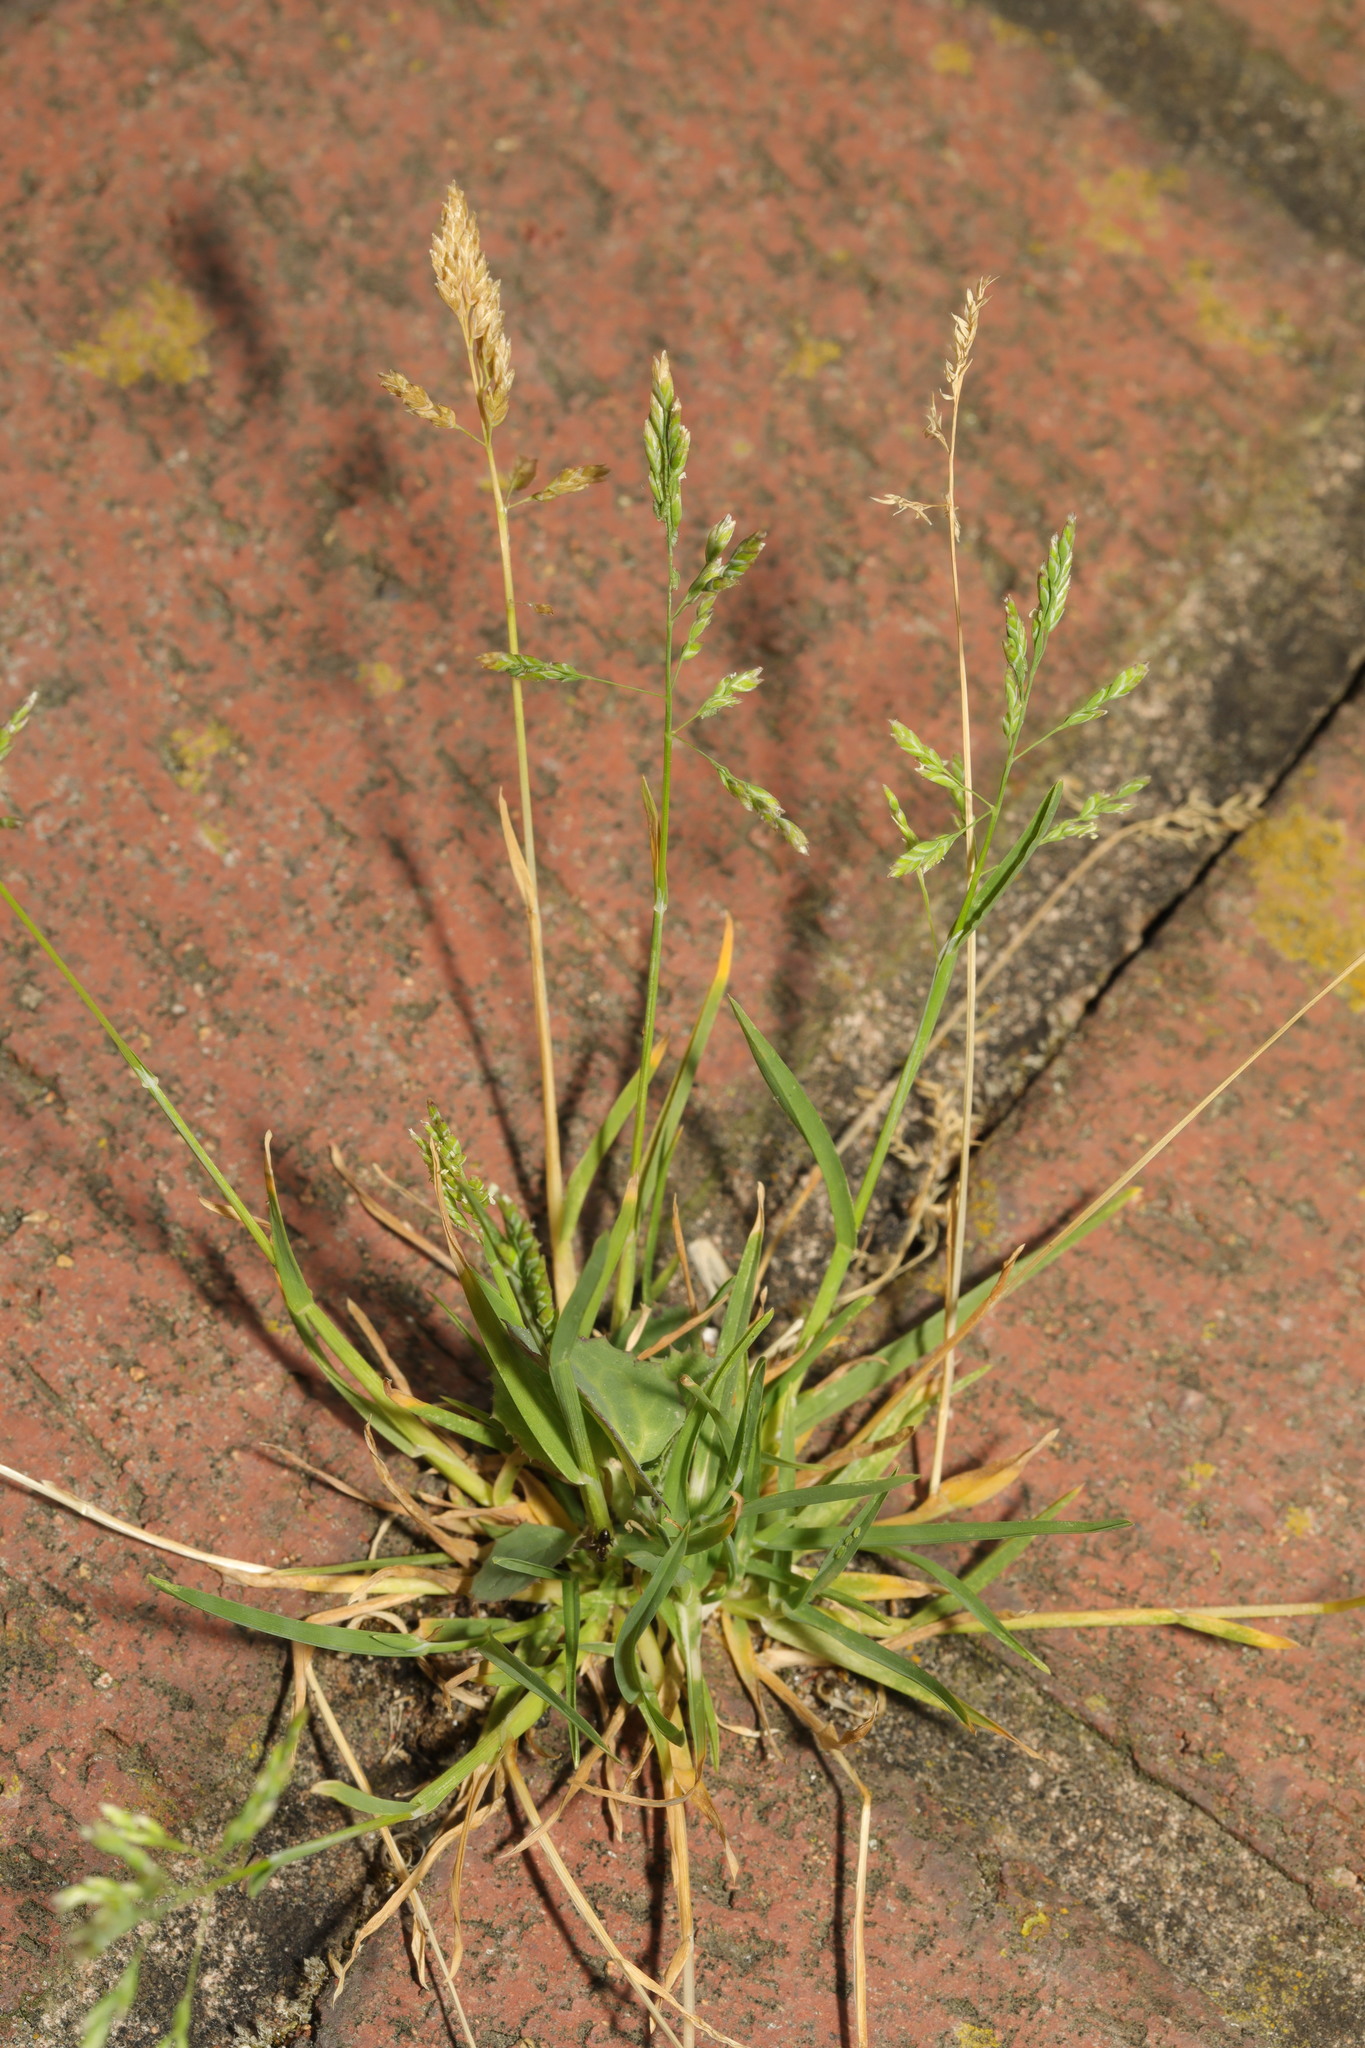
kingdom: Plantae
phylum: Tracheophyta
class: Liliopsida
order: Poales
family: Poaceae
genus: Poa
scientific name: Poa annua
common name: Annual bluegrass
